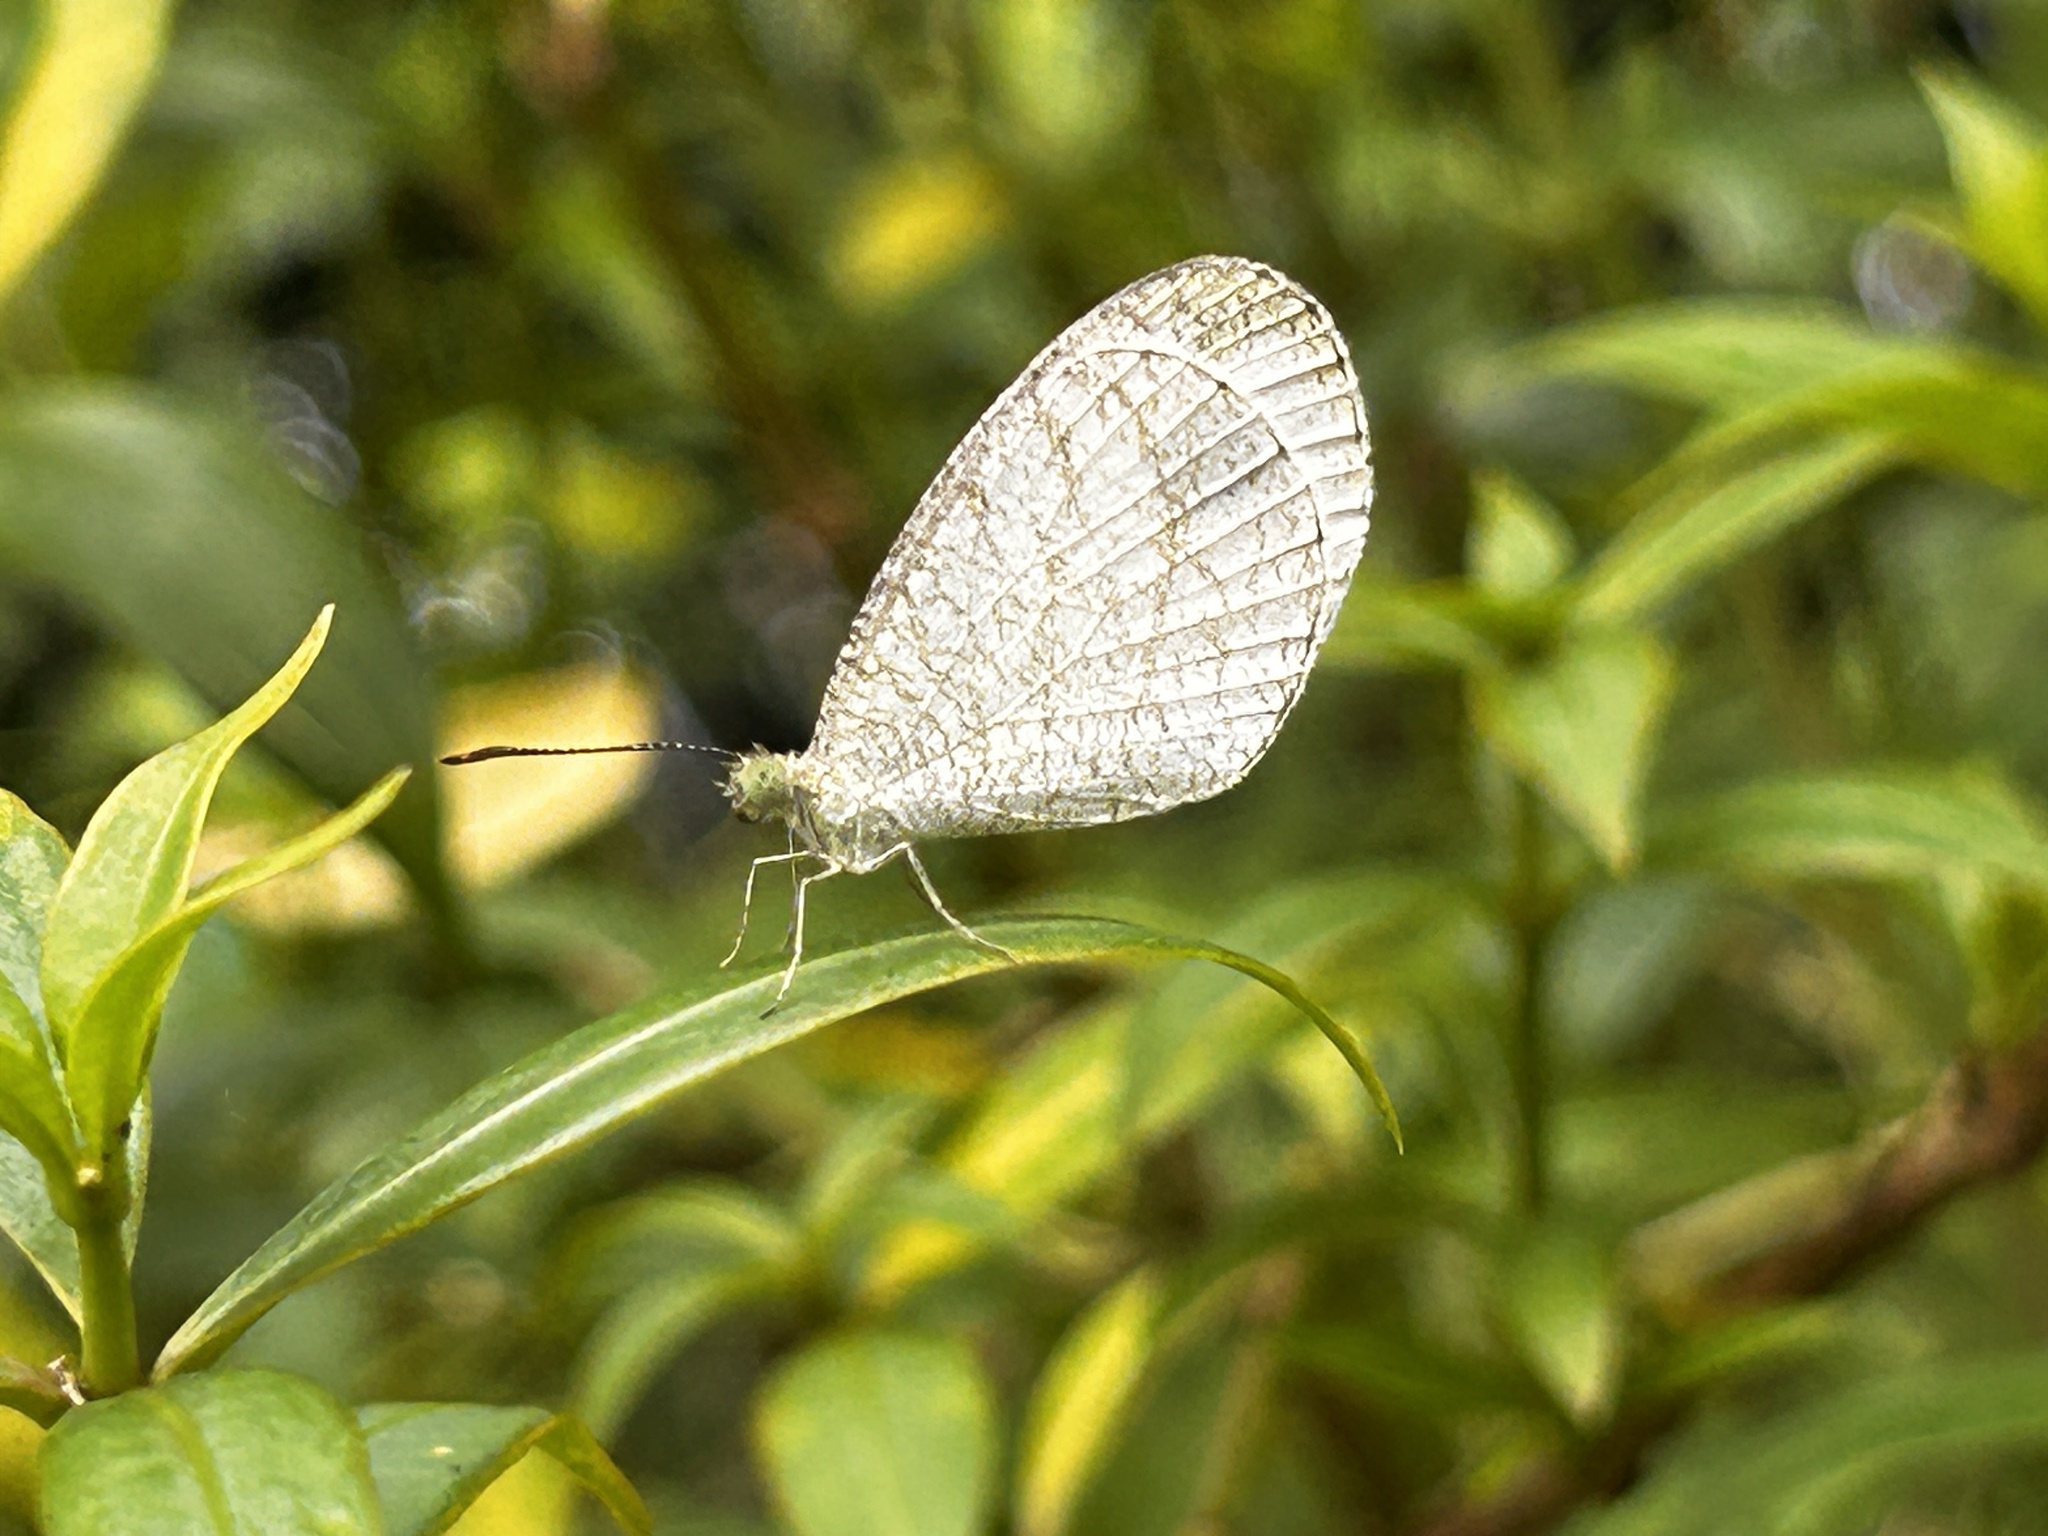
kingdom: Animalia
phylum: Arthropoda
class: Insecta
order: Lepidoptera
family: Pieridae
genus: Leptosia
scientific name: Leptosia nina
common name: Psyche
